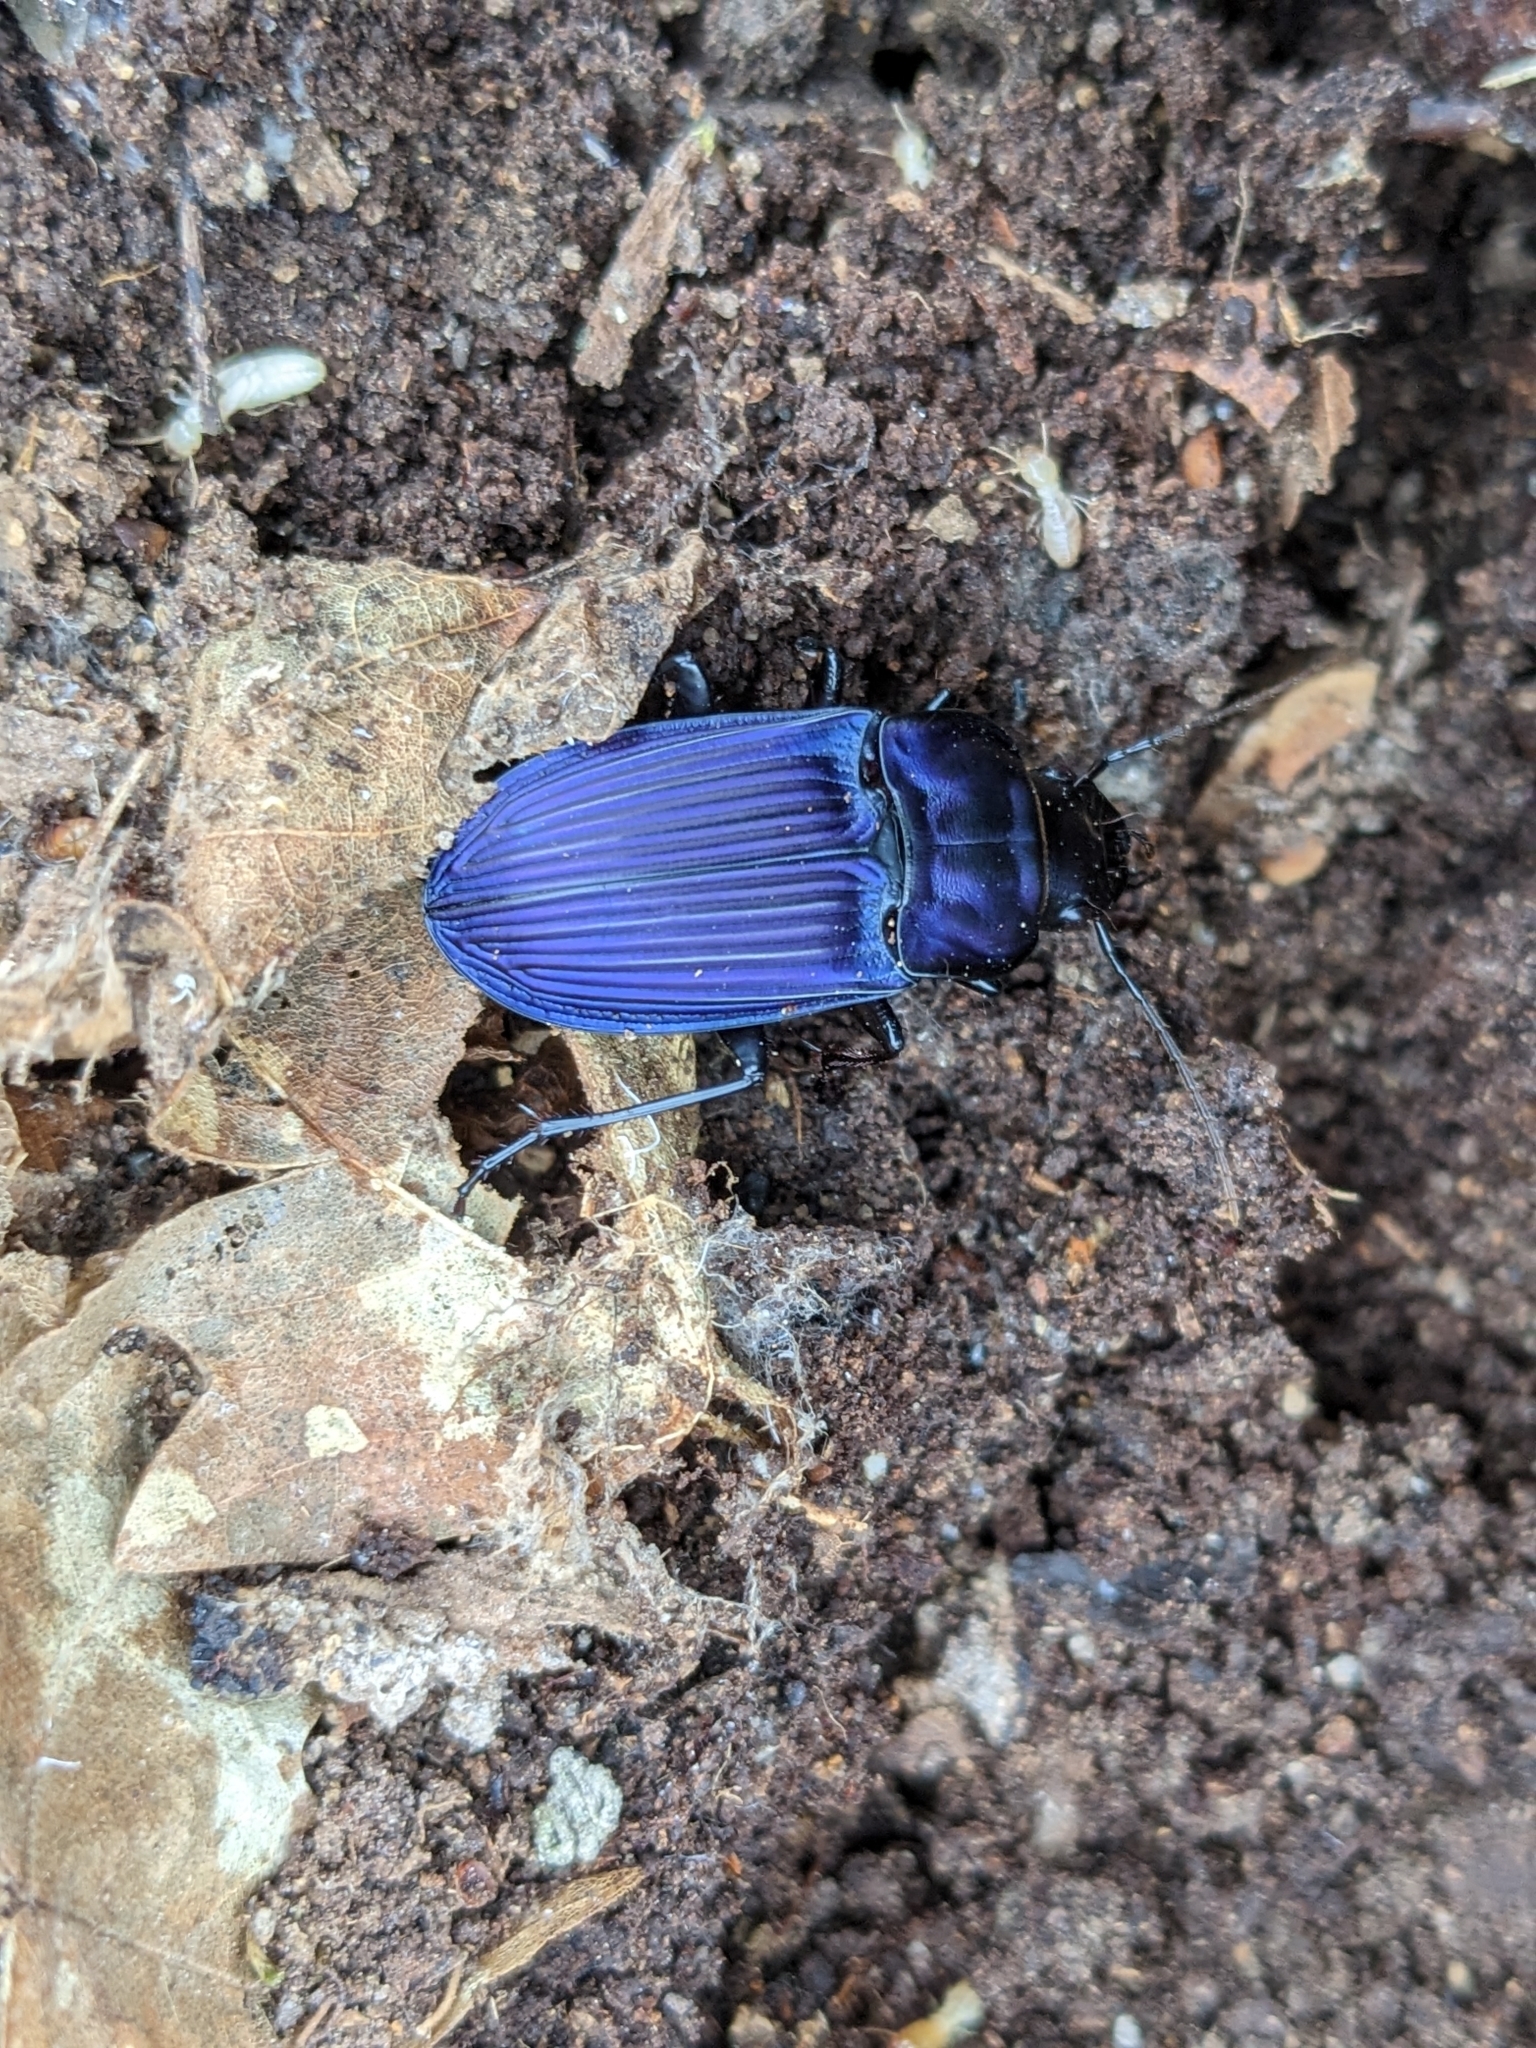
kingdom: Animalia
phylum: Arthropoda
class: Insecta
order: Coleoptera
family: Carabidae
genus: Dicaelus
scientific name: Dicaelus purpuratus
